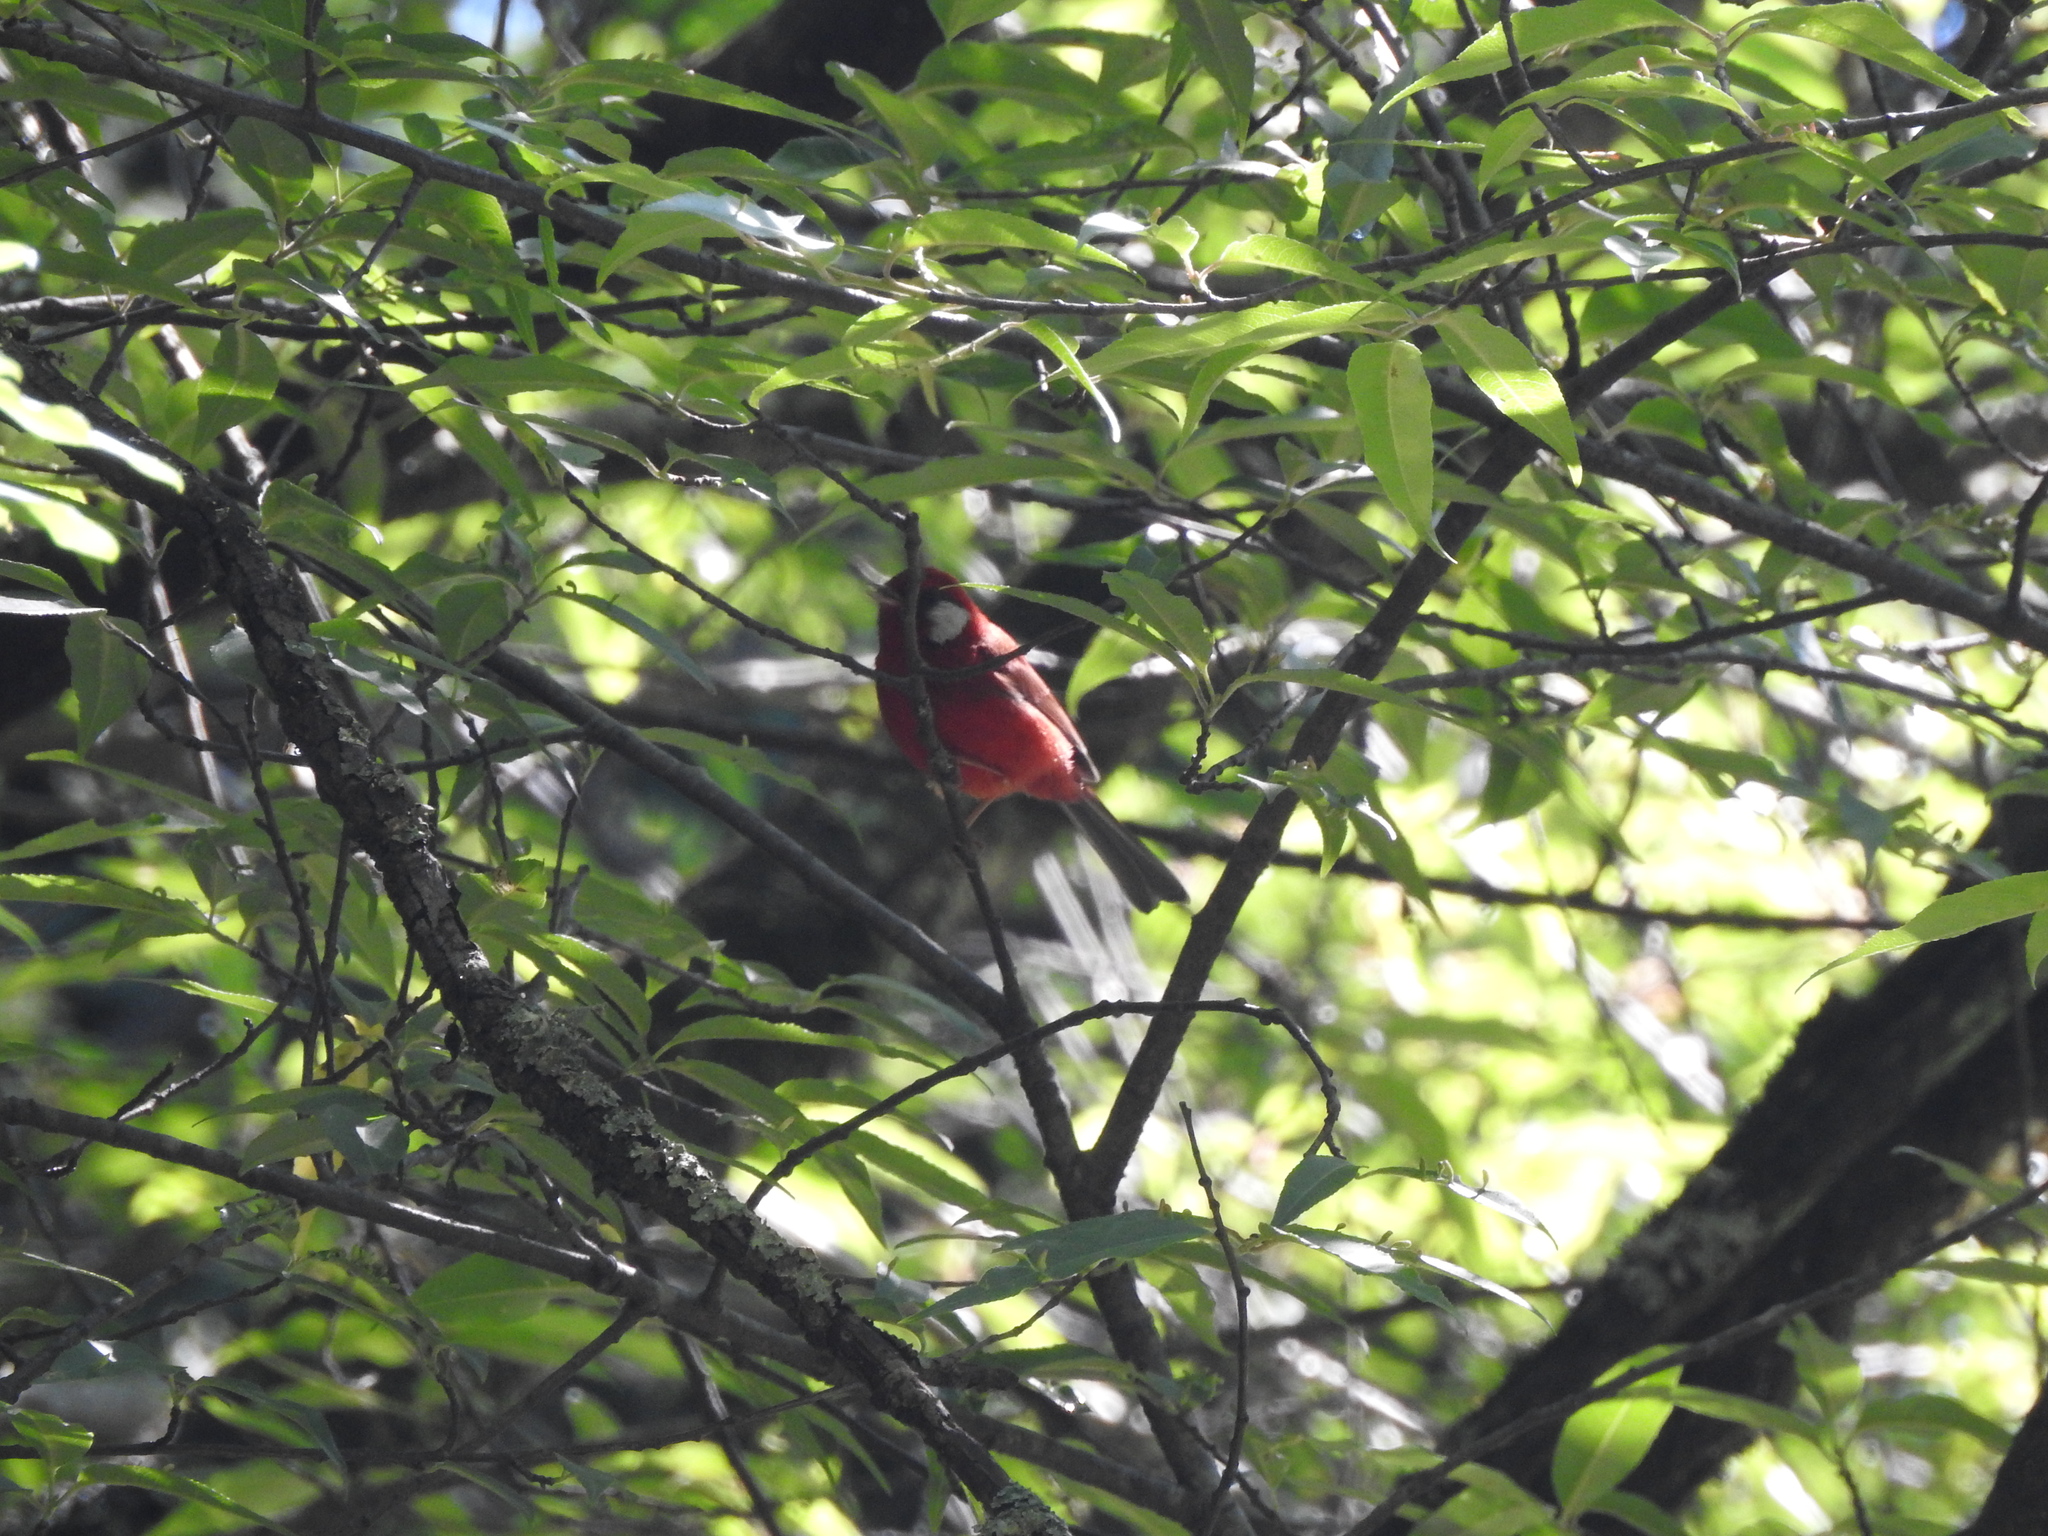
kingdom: Animalia
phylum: Chordata
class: Aves
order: Passeriformes
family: Parulidae
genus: Cardellina
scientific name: Cardellina rubra
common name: Red warbler
